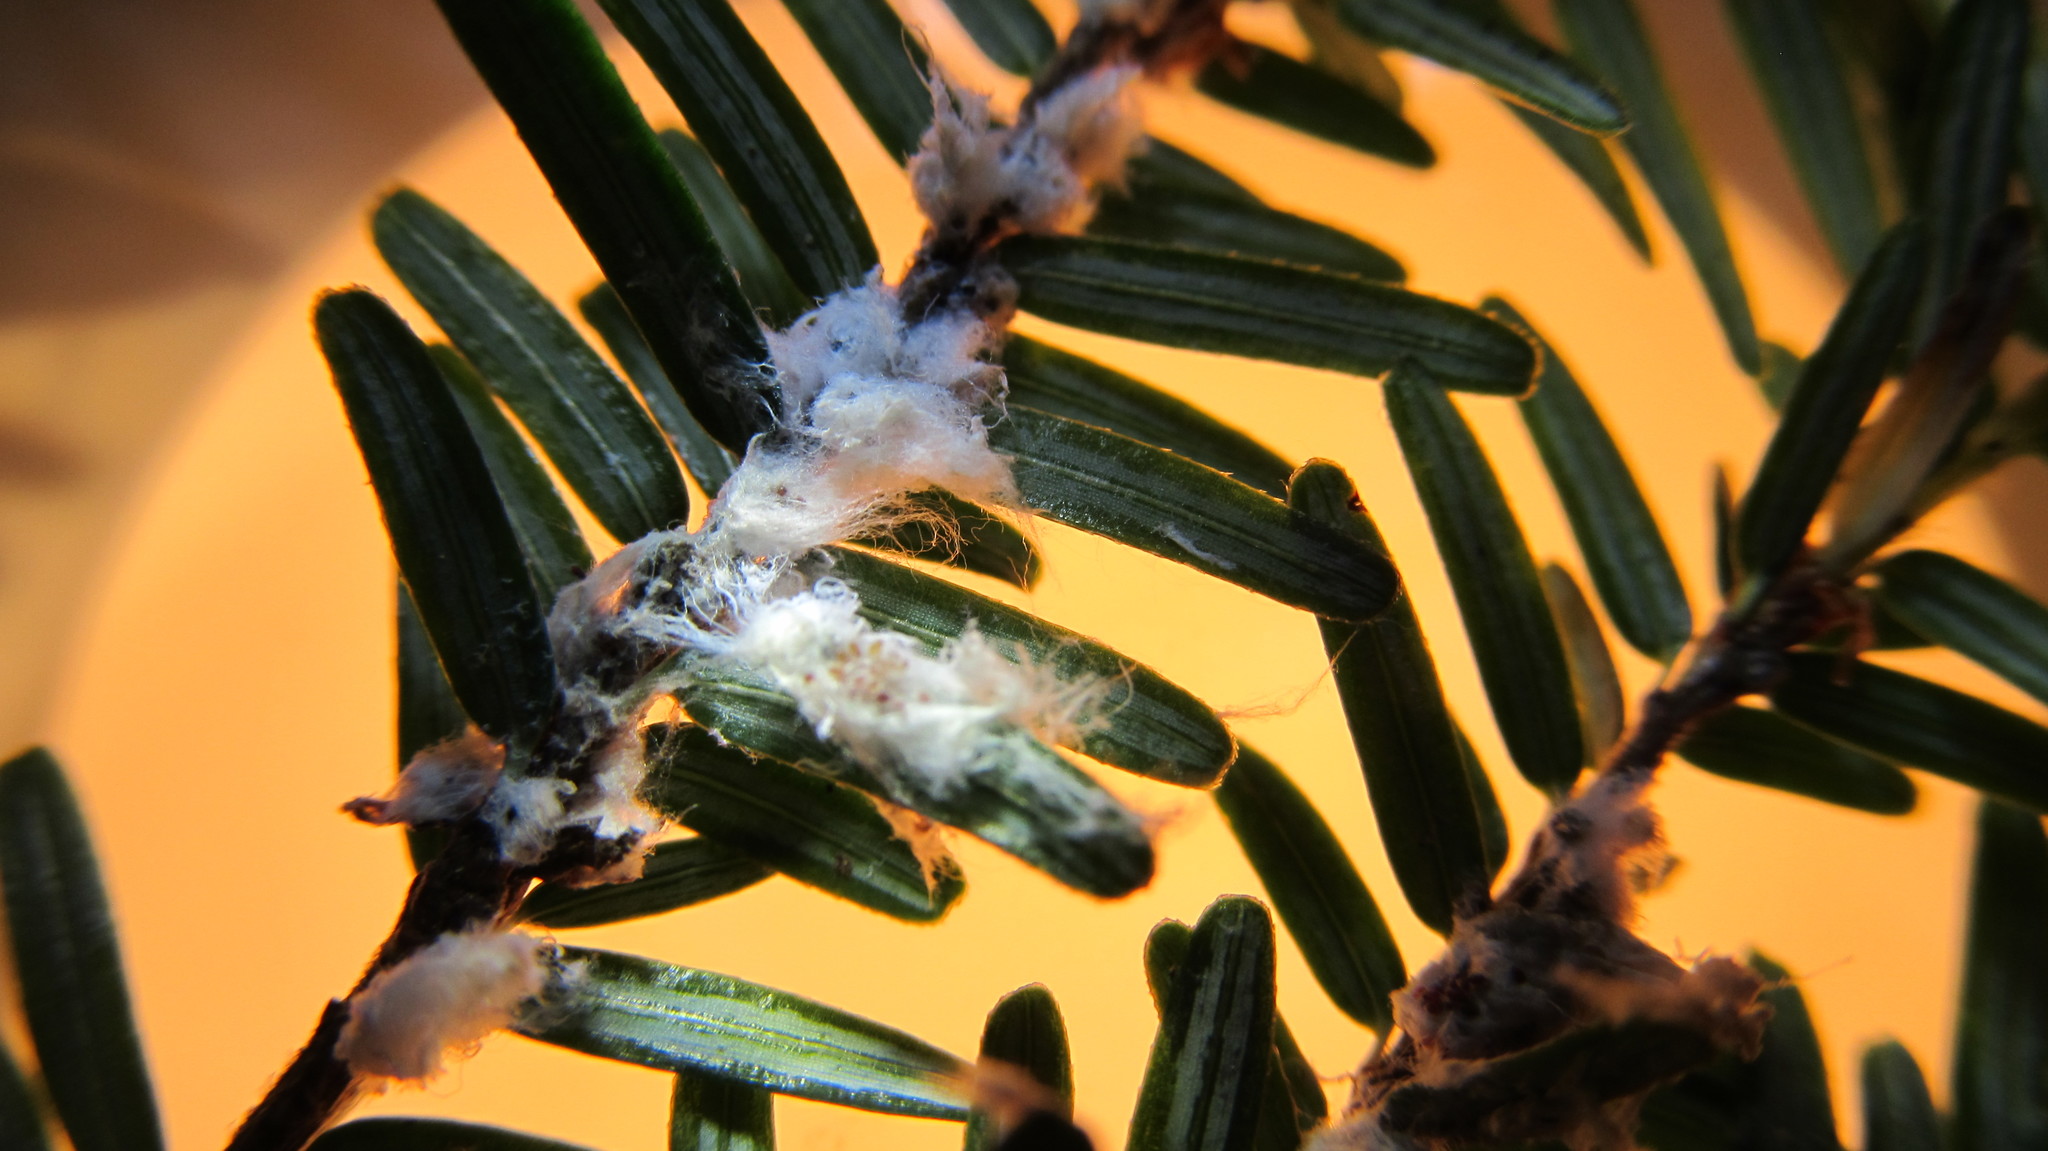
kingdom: Animalia
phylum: Arthropoda
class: Insecta
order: Hemiptera
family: Adelgidae
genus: Adelges
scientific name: Adelges tsugae
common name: Hemlock woolly adelgid
